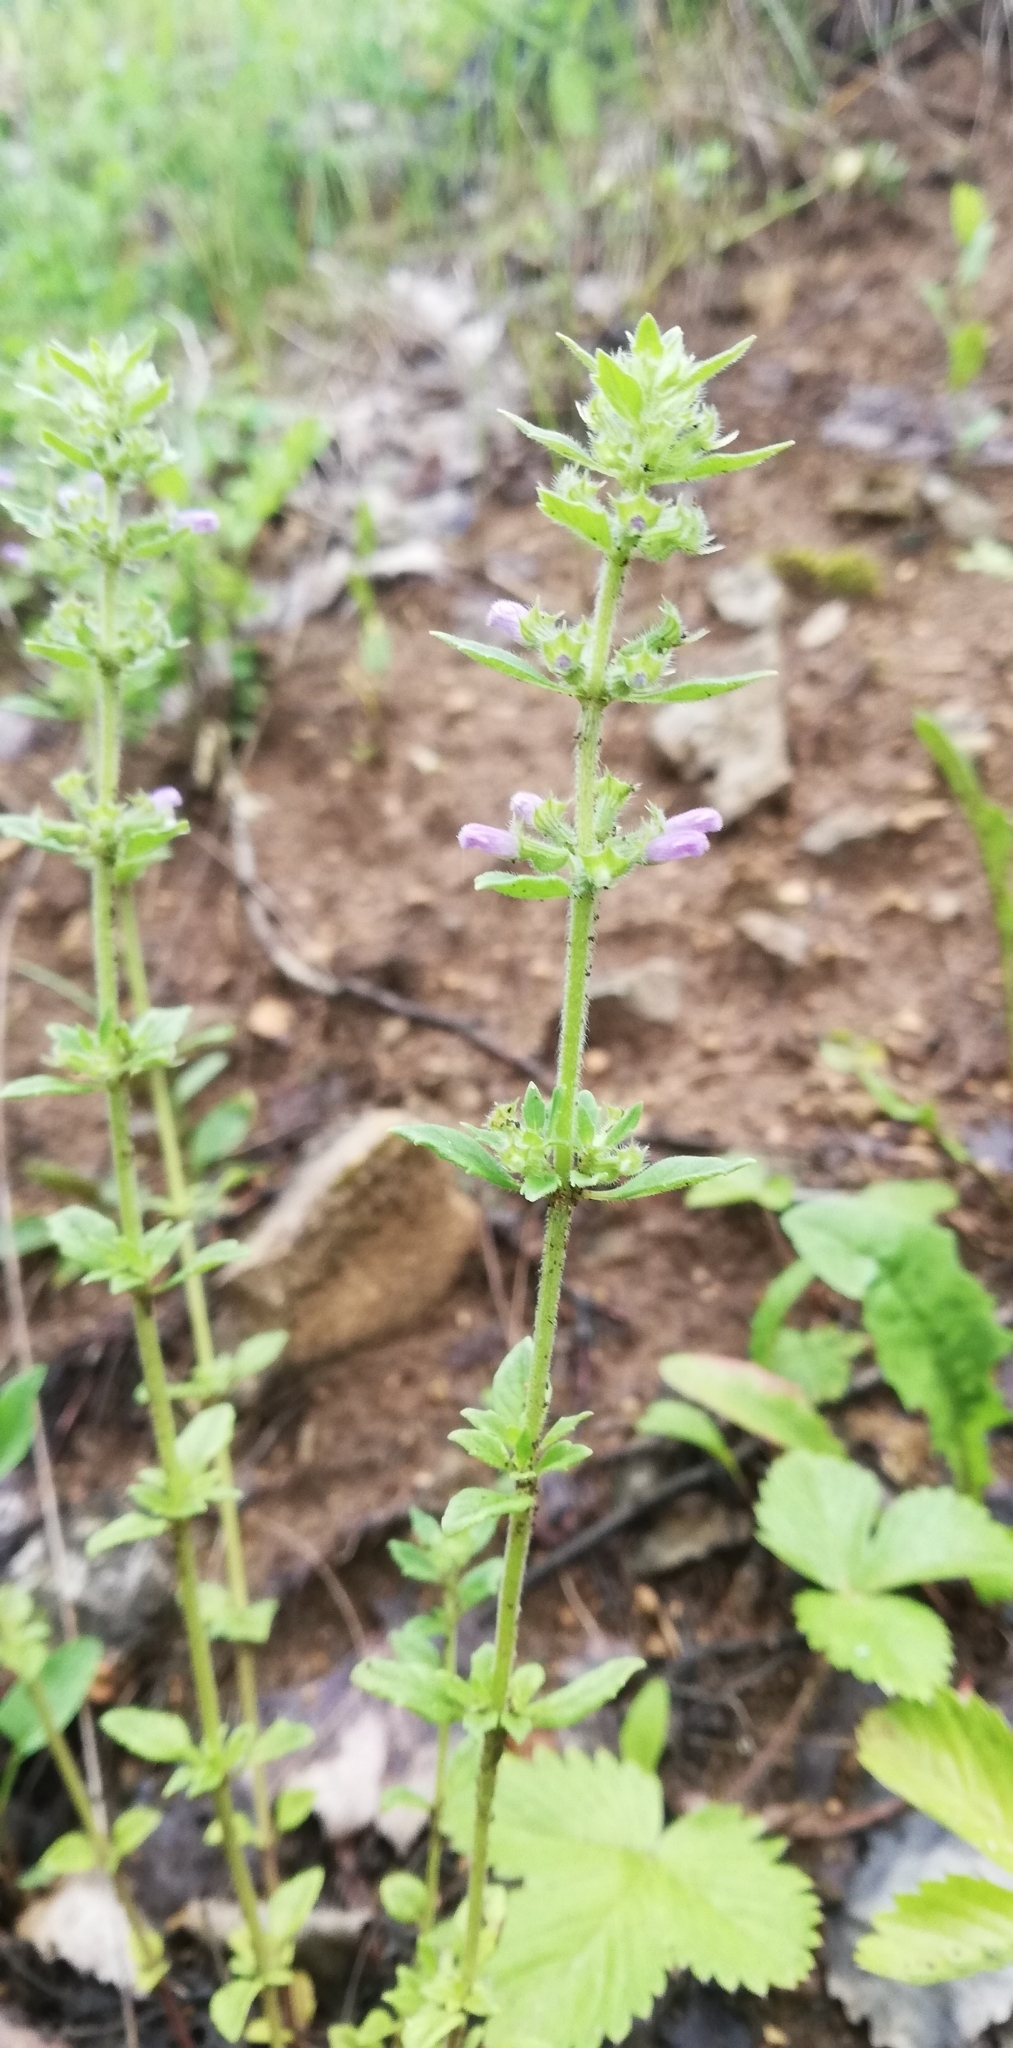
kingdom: Plantae
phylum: Tracheophyta
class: Magnoliopsida
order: Lamiales
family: Lamiaceae
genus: Clinopodium
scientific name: Clinopodium acinos
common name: Basil thyme
